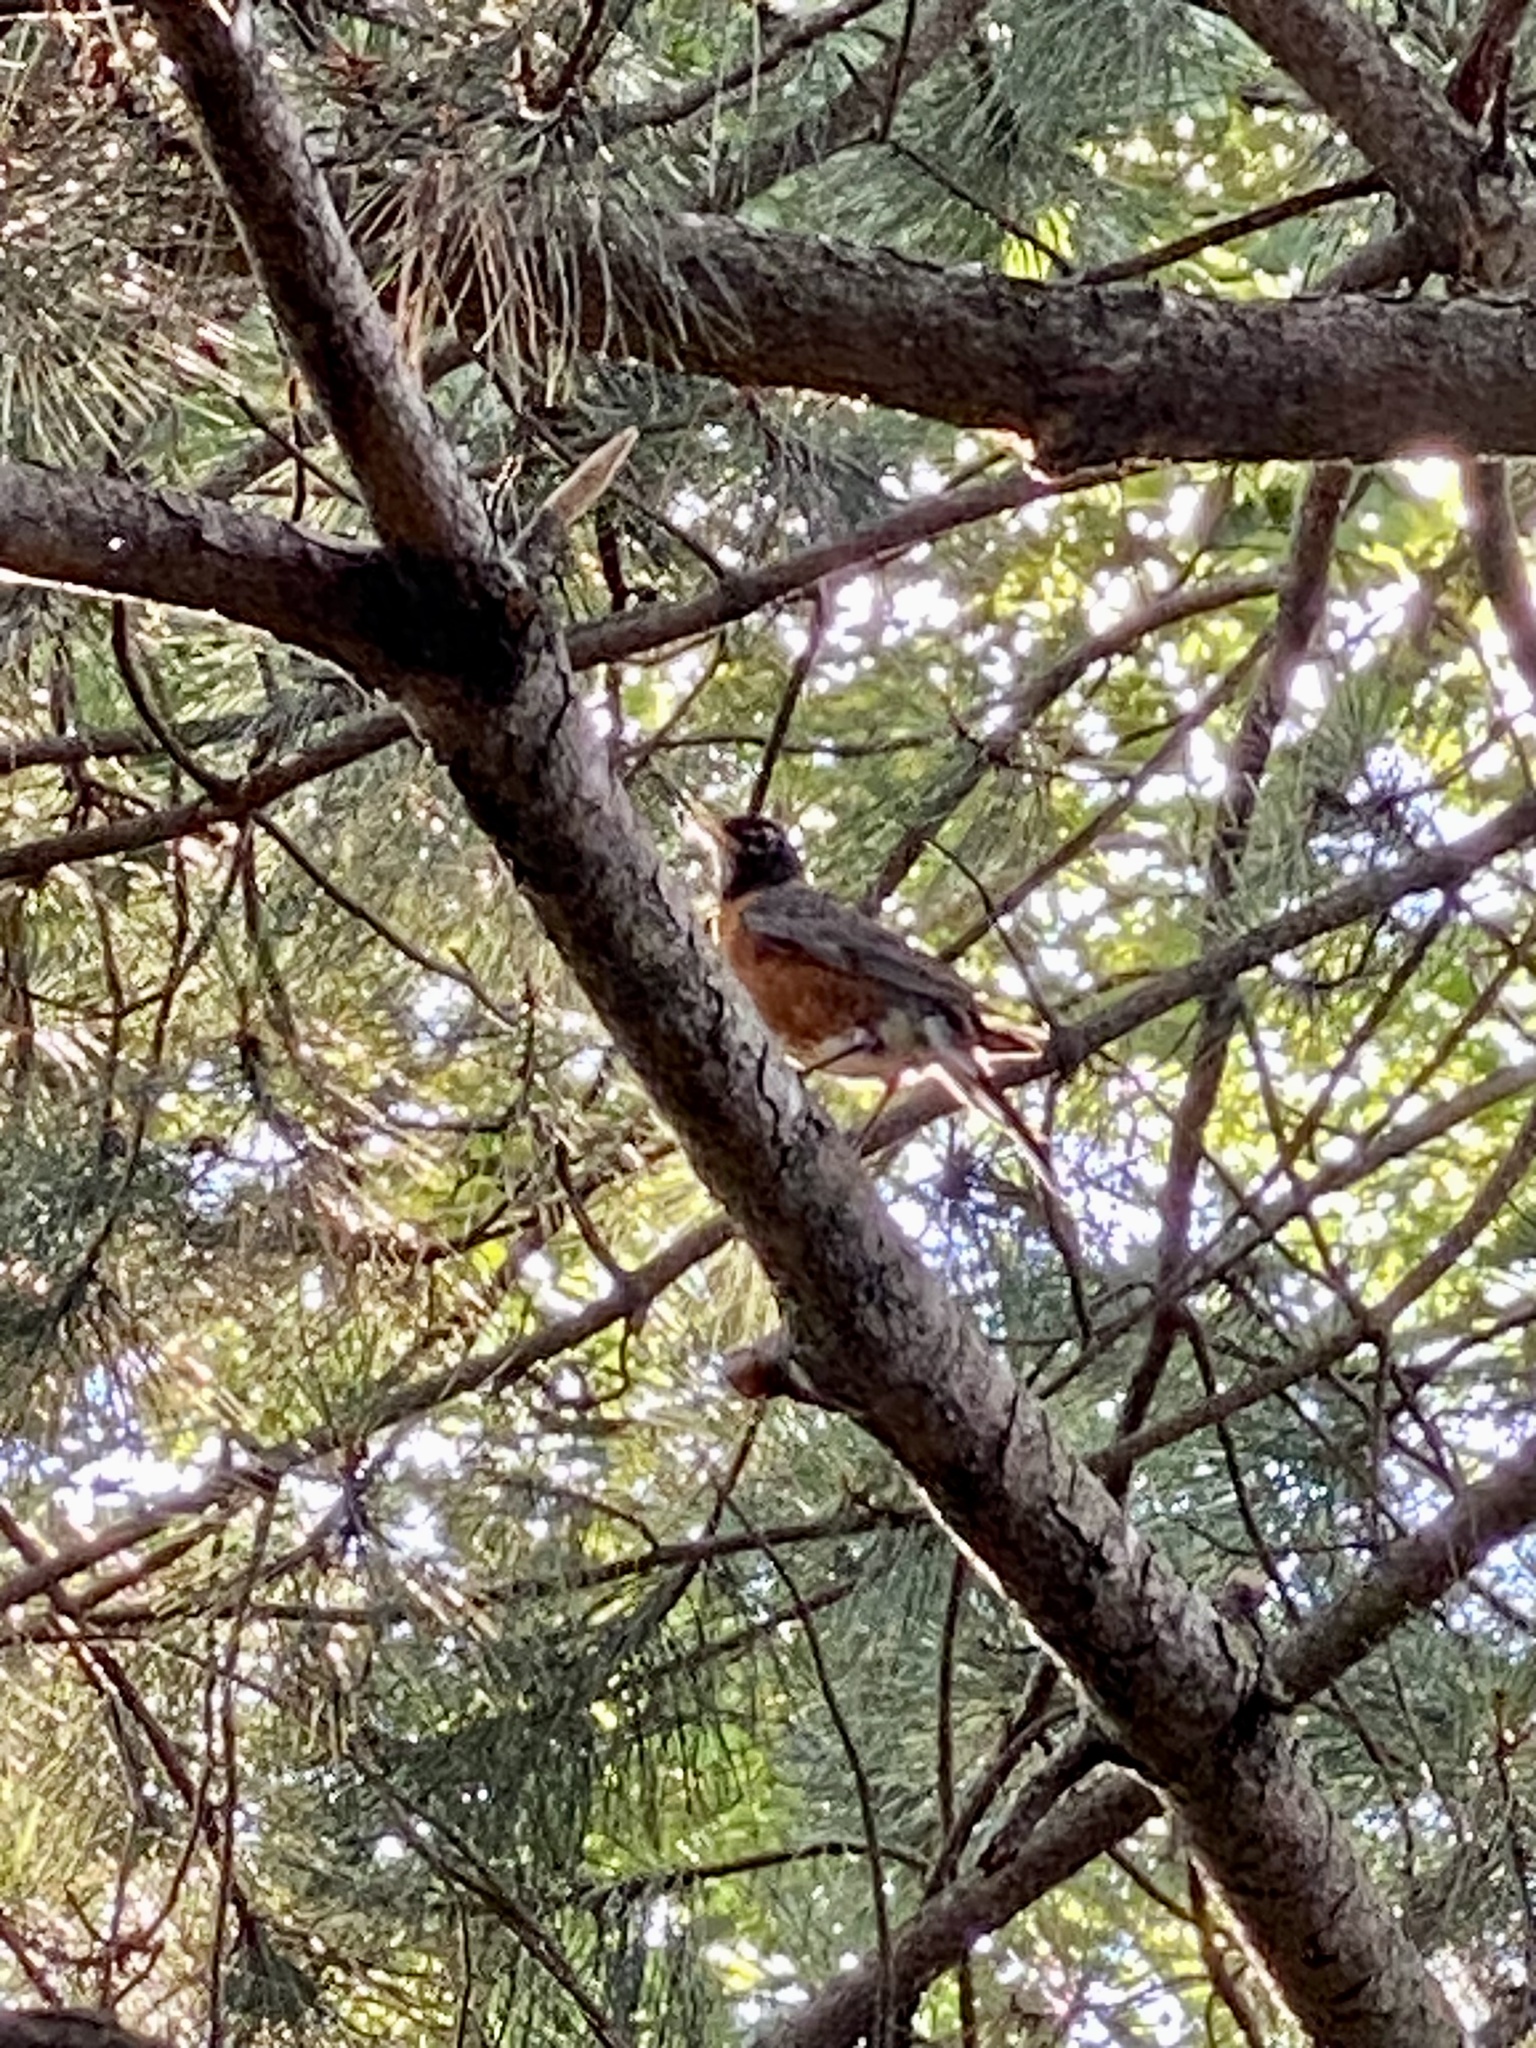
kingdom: Animalia
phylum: Chordata
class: Aves
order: Passeriformes
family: Turdidae
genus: Turdus
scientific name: Turdus migratorius
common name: American robin
